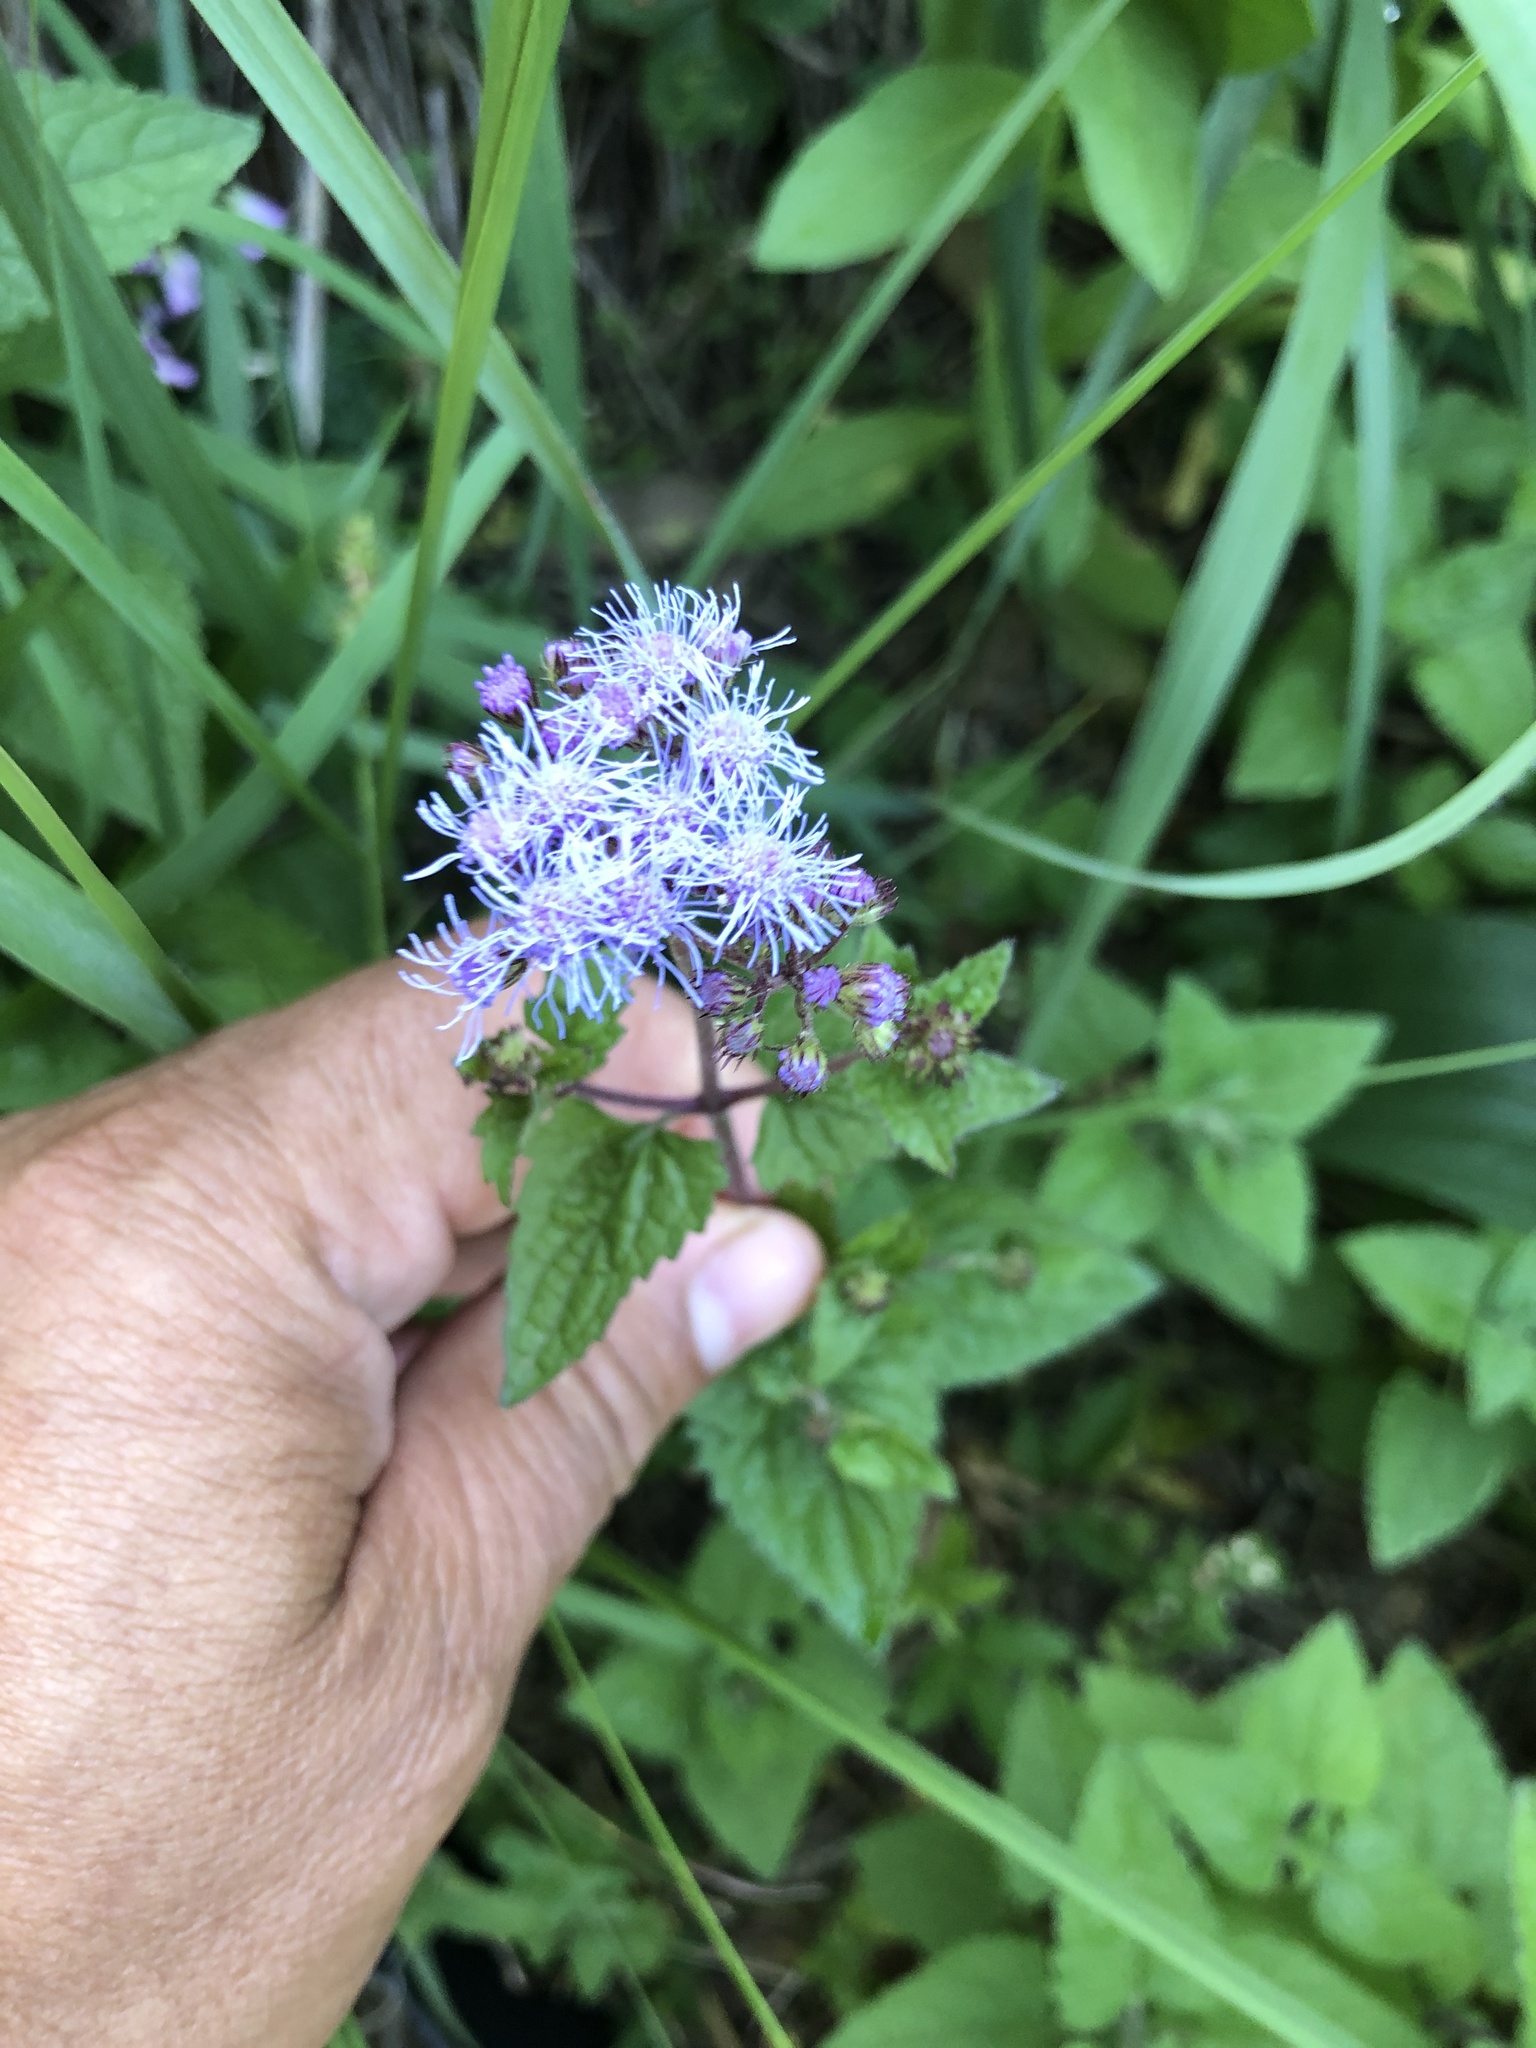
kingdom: Plantae
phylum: Tracheophyta
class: Magnoliopsida
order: Asterales
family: Asteraceae
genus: Conoclinium
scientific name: Conoclinium coelestinum
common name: Blue mistflower
